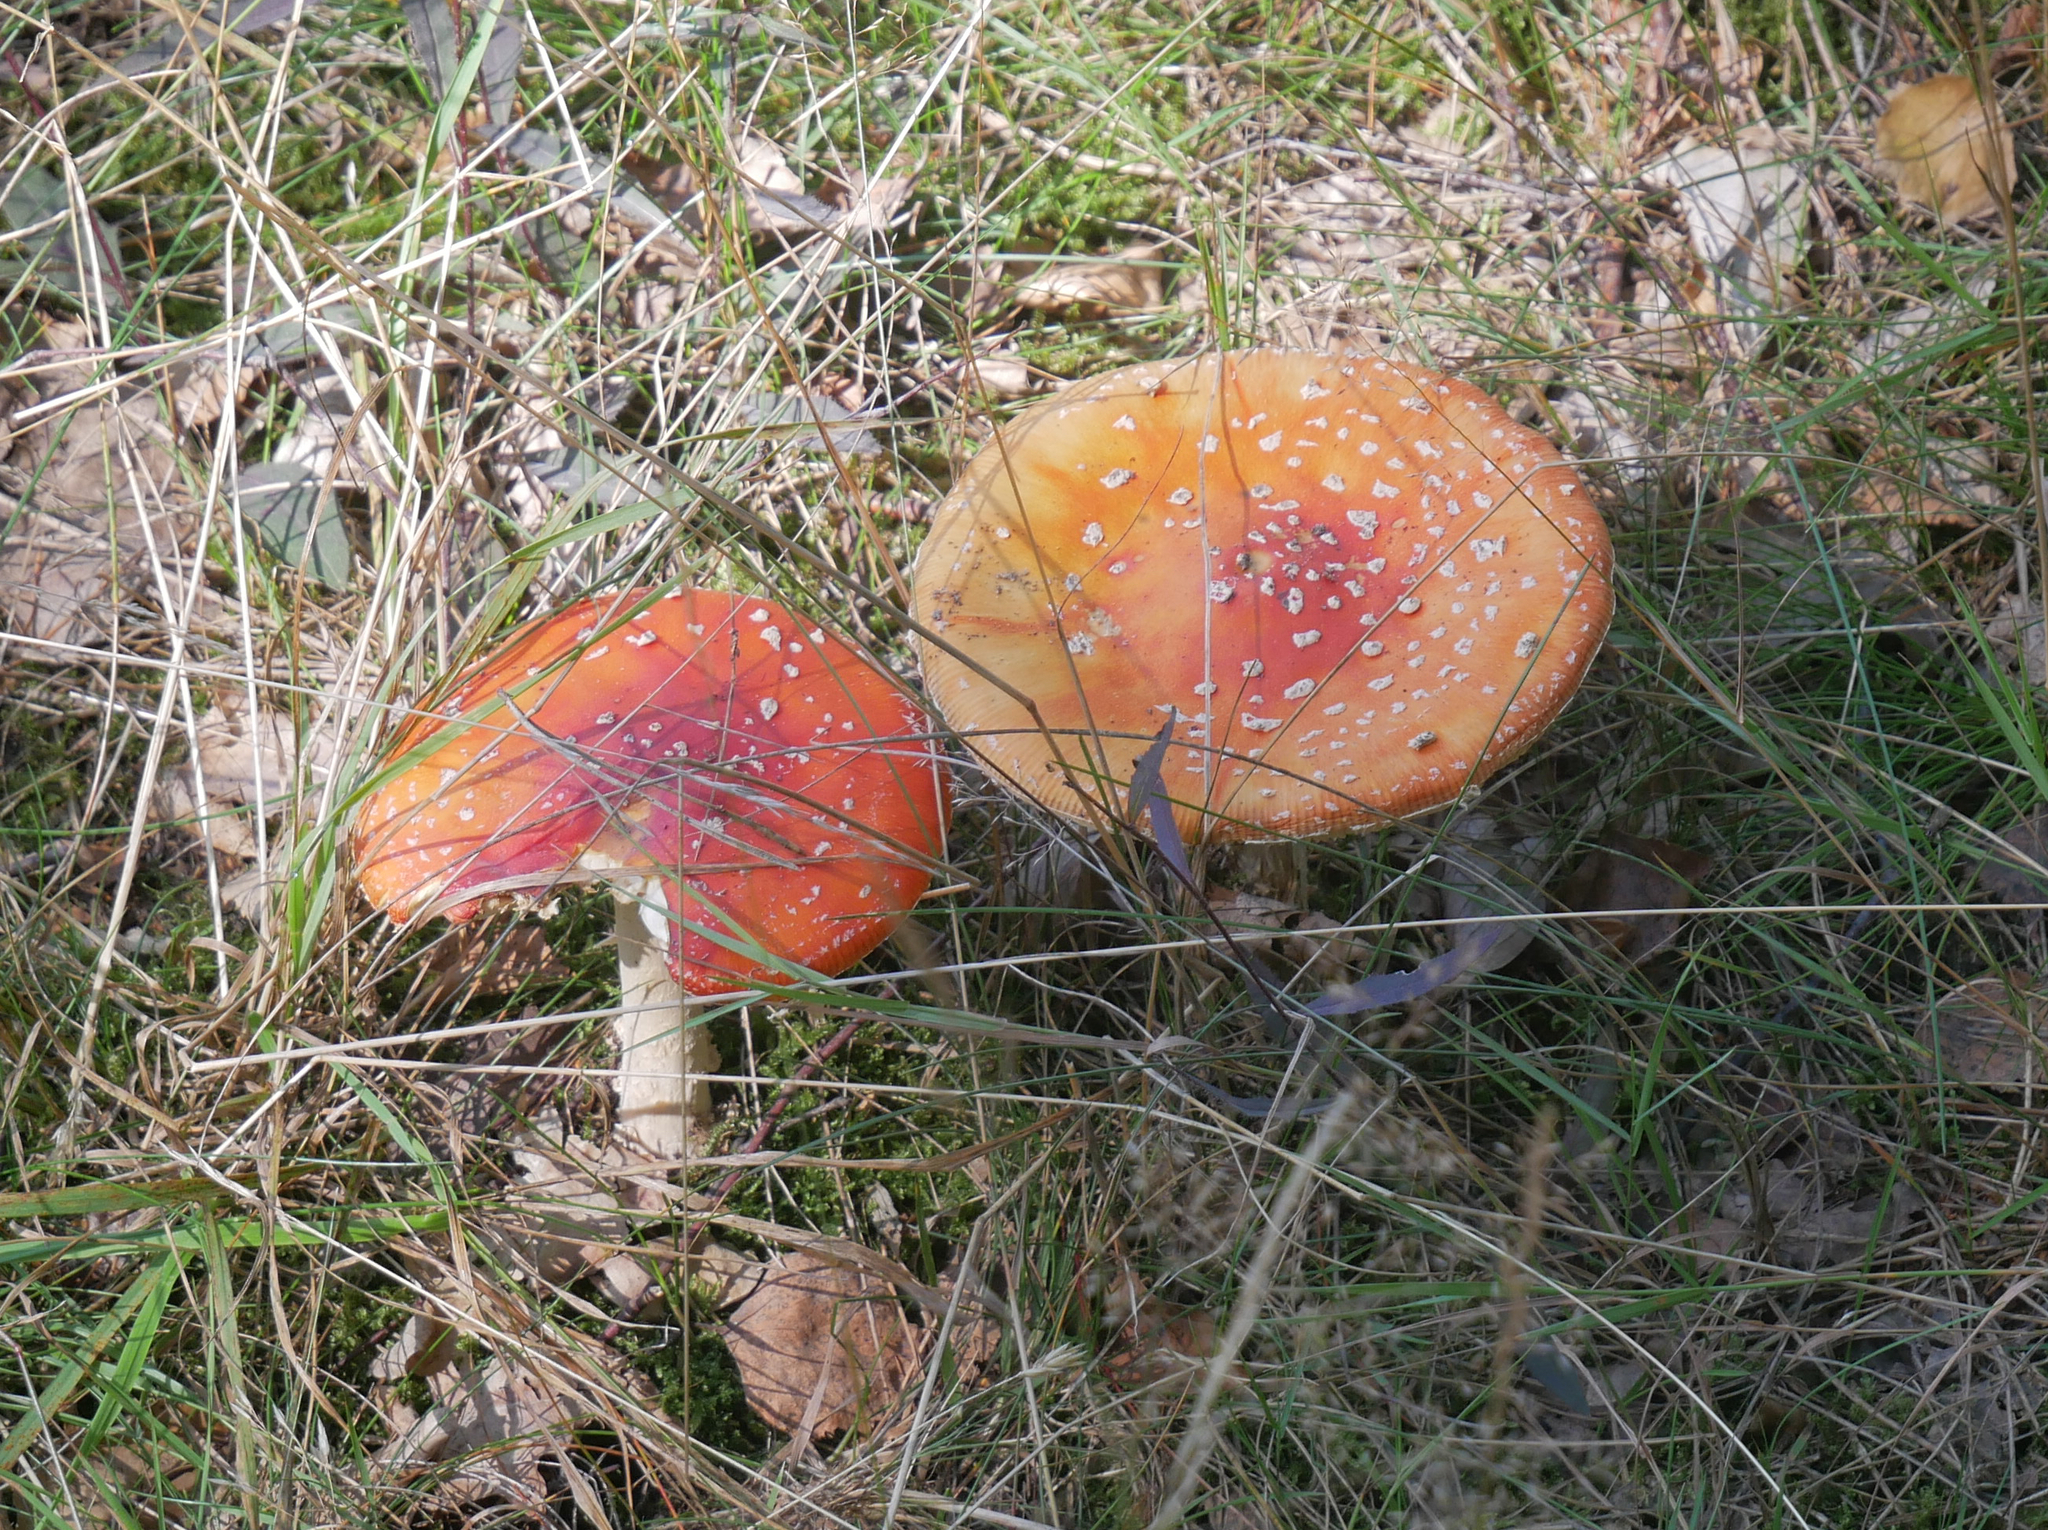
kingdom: Fungi
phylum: Basidiomycota
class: Agaricomycetes
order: Agaricales
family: Amanitaceae
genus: Amanita
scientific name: Amanita muscaria
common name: Fly agaric
